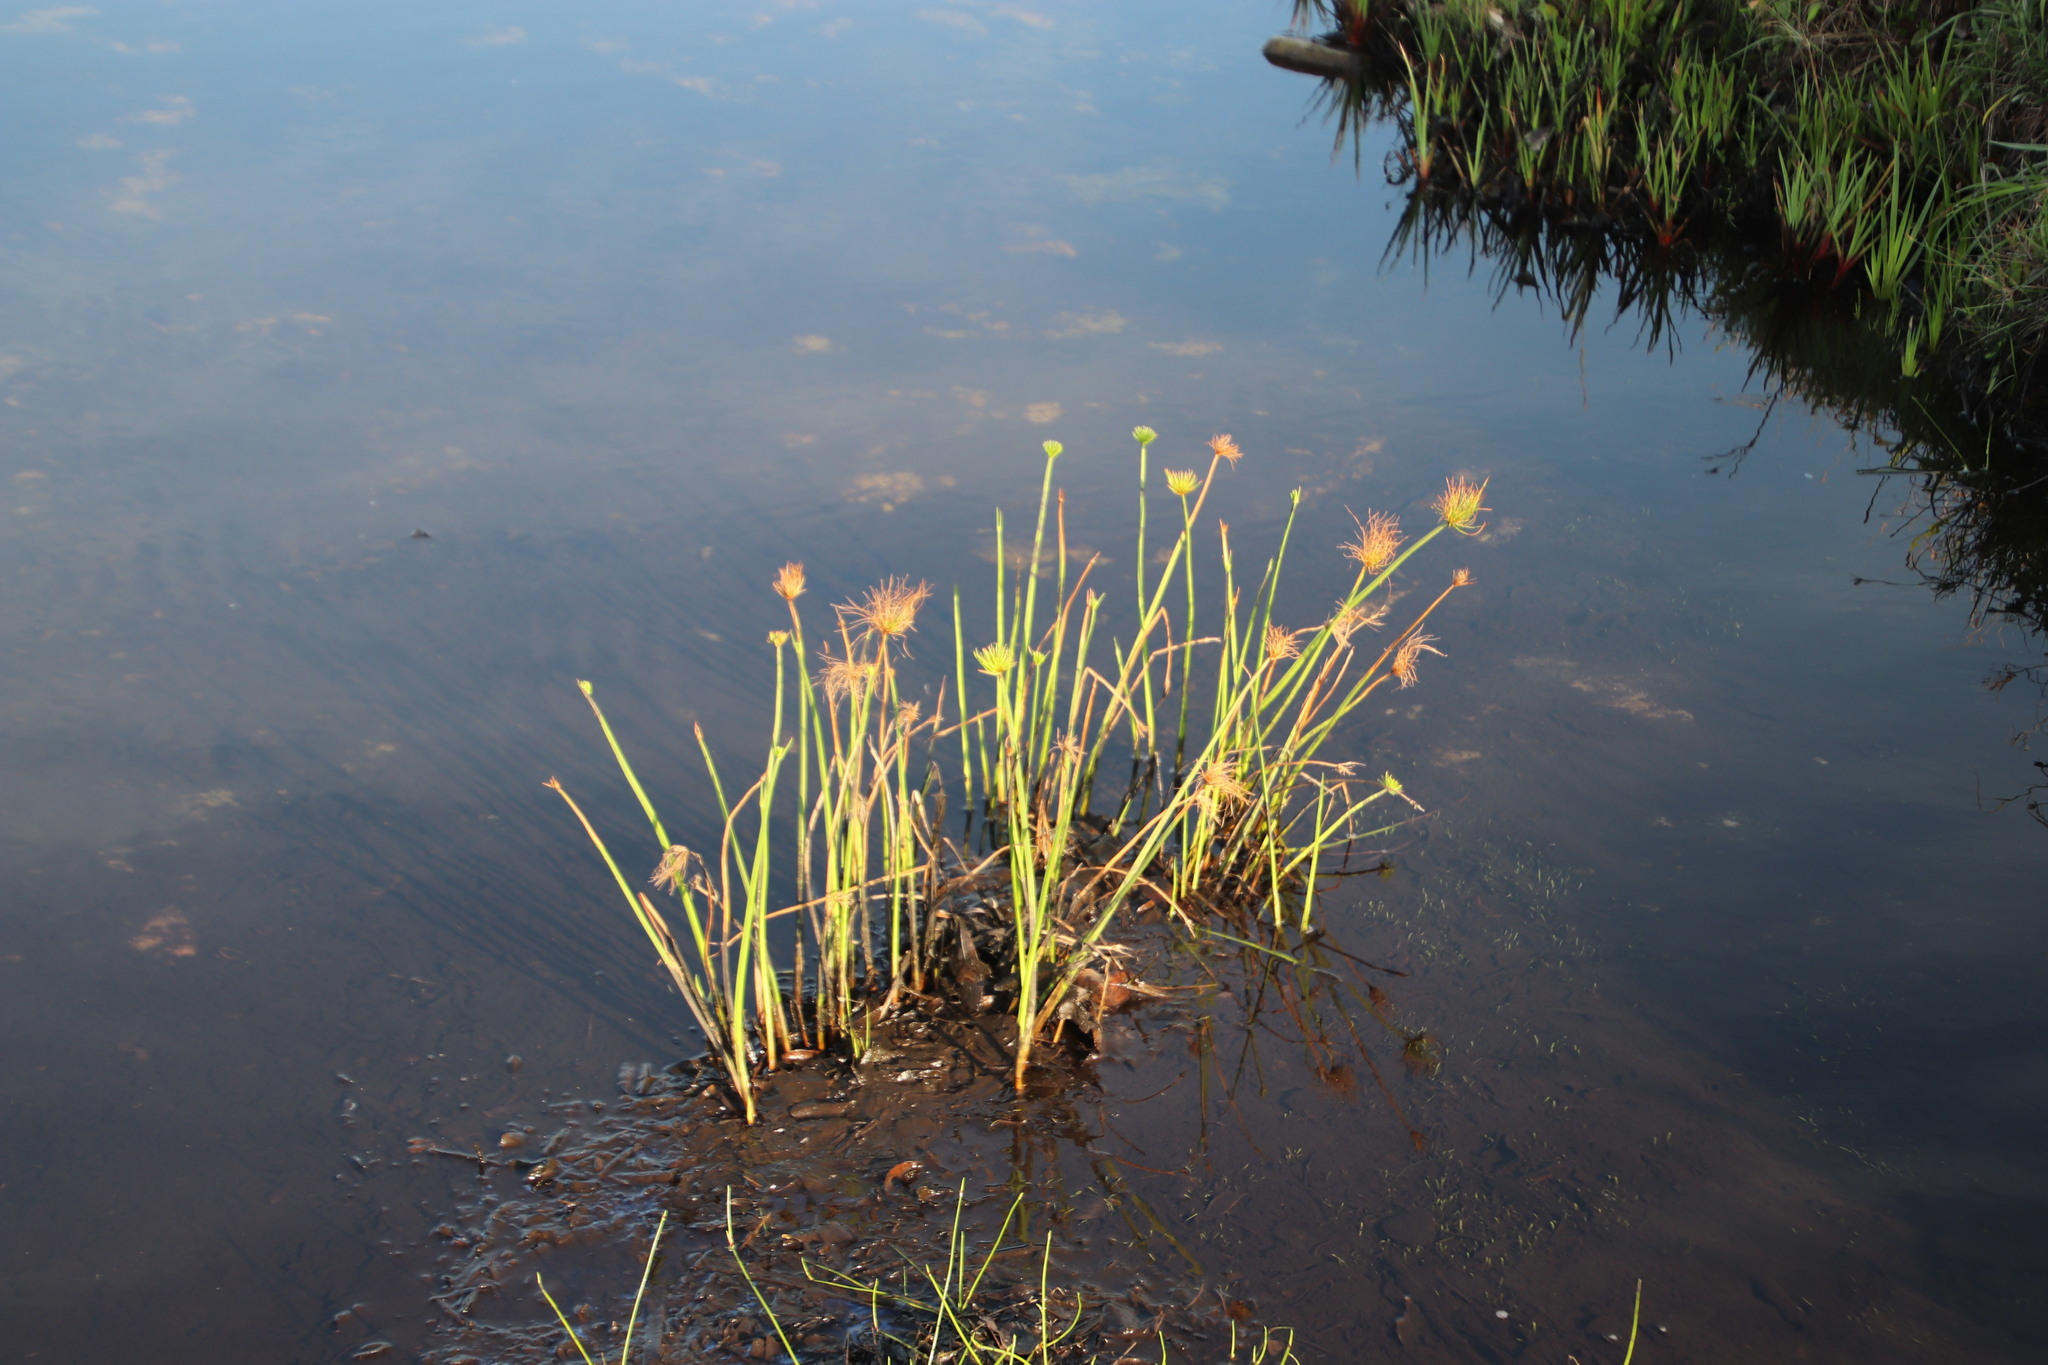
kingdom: Plantae
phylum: Tracheophyta
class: Liliopsida
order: Poales
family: Cyperaceae
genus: Cyperus
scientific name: Cyperus prolifer
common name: Miniature flatsedge
